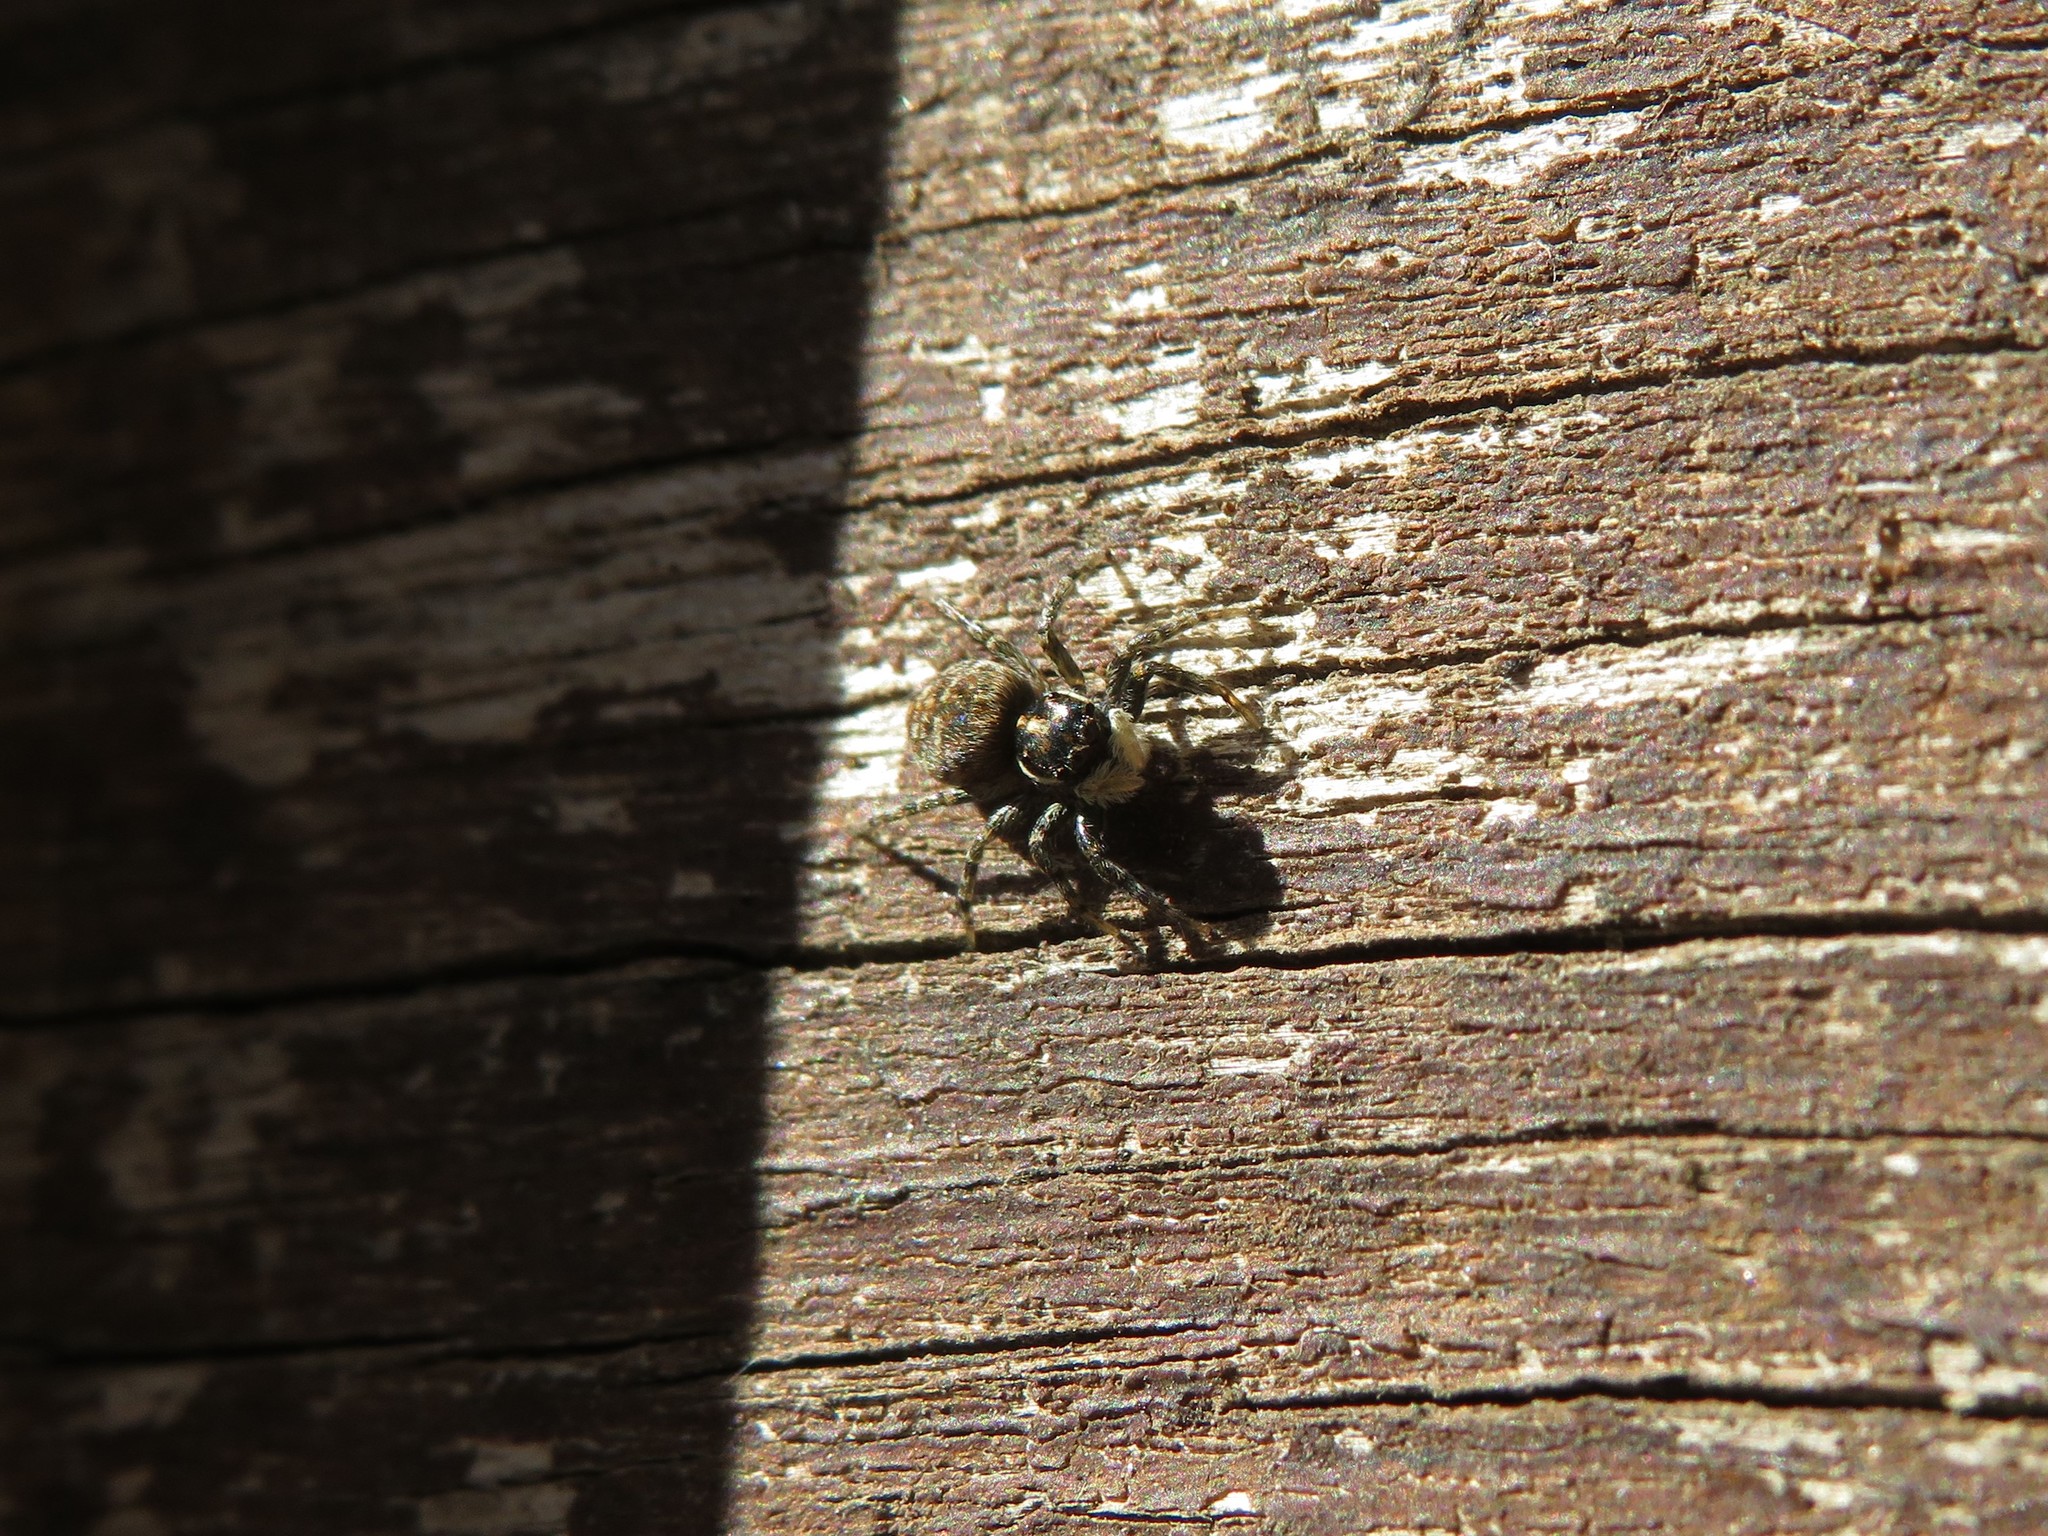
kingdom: Animalia
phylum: Arthropoda
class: Arachnida
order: Araneae
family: Salticidae
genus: Menemerus
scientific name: Menemerus semilimbatus
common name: Jumping spider
